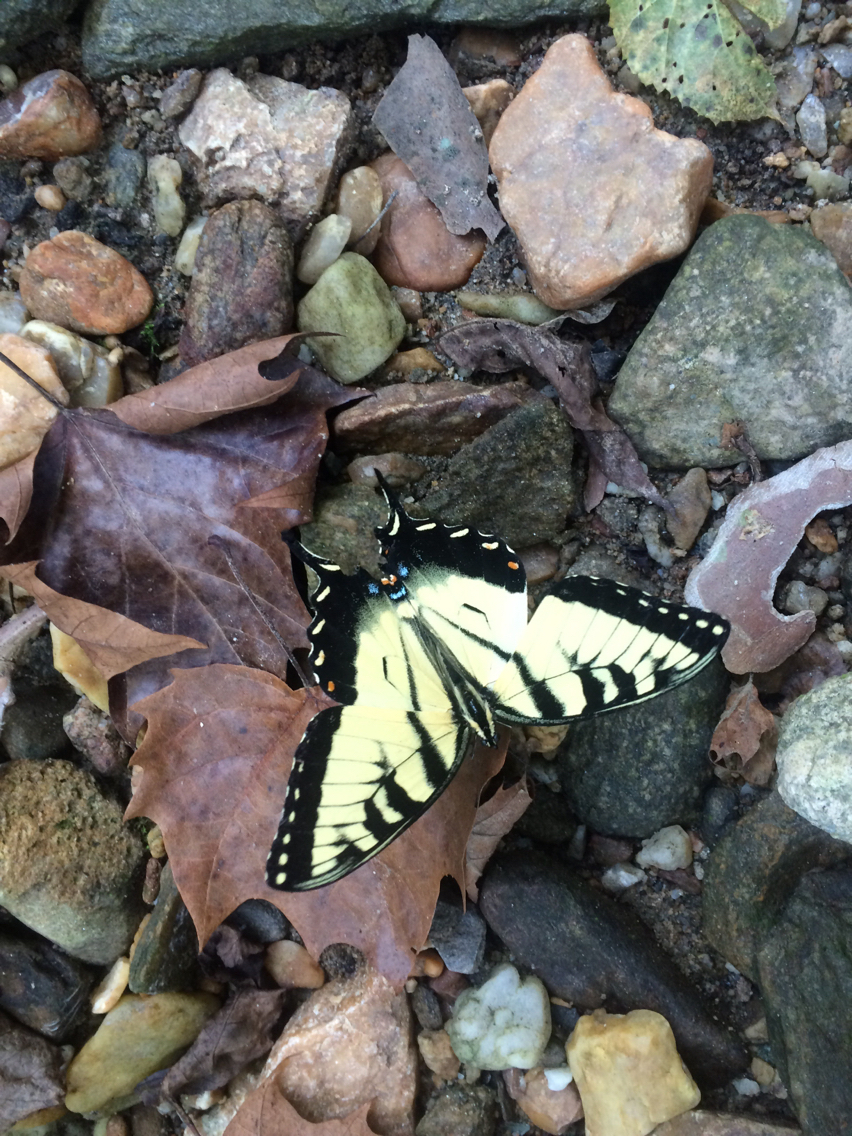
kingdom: Animalia
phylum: Arthropoda
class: Insecta
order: Lepidoptera
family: Papilionidae
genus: Papilio
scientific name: Papilio glaucus
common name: Tiger swallowtail
